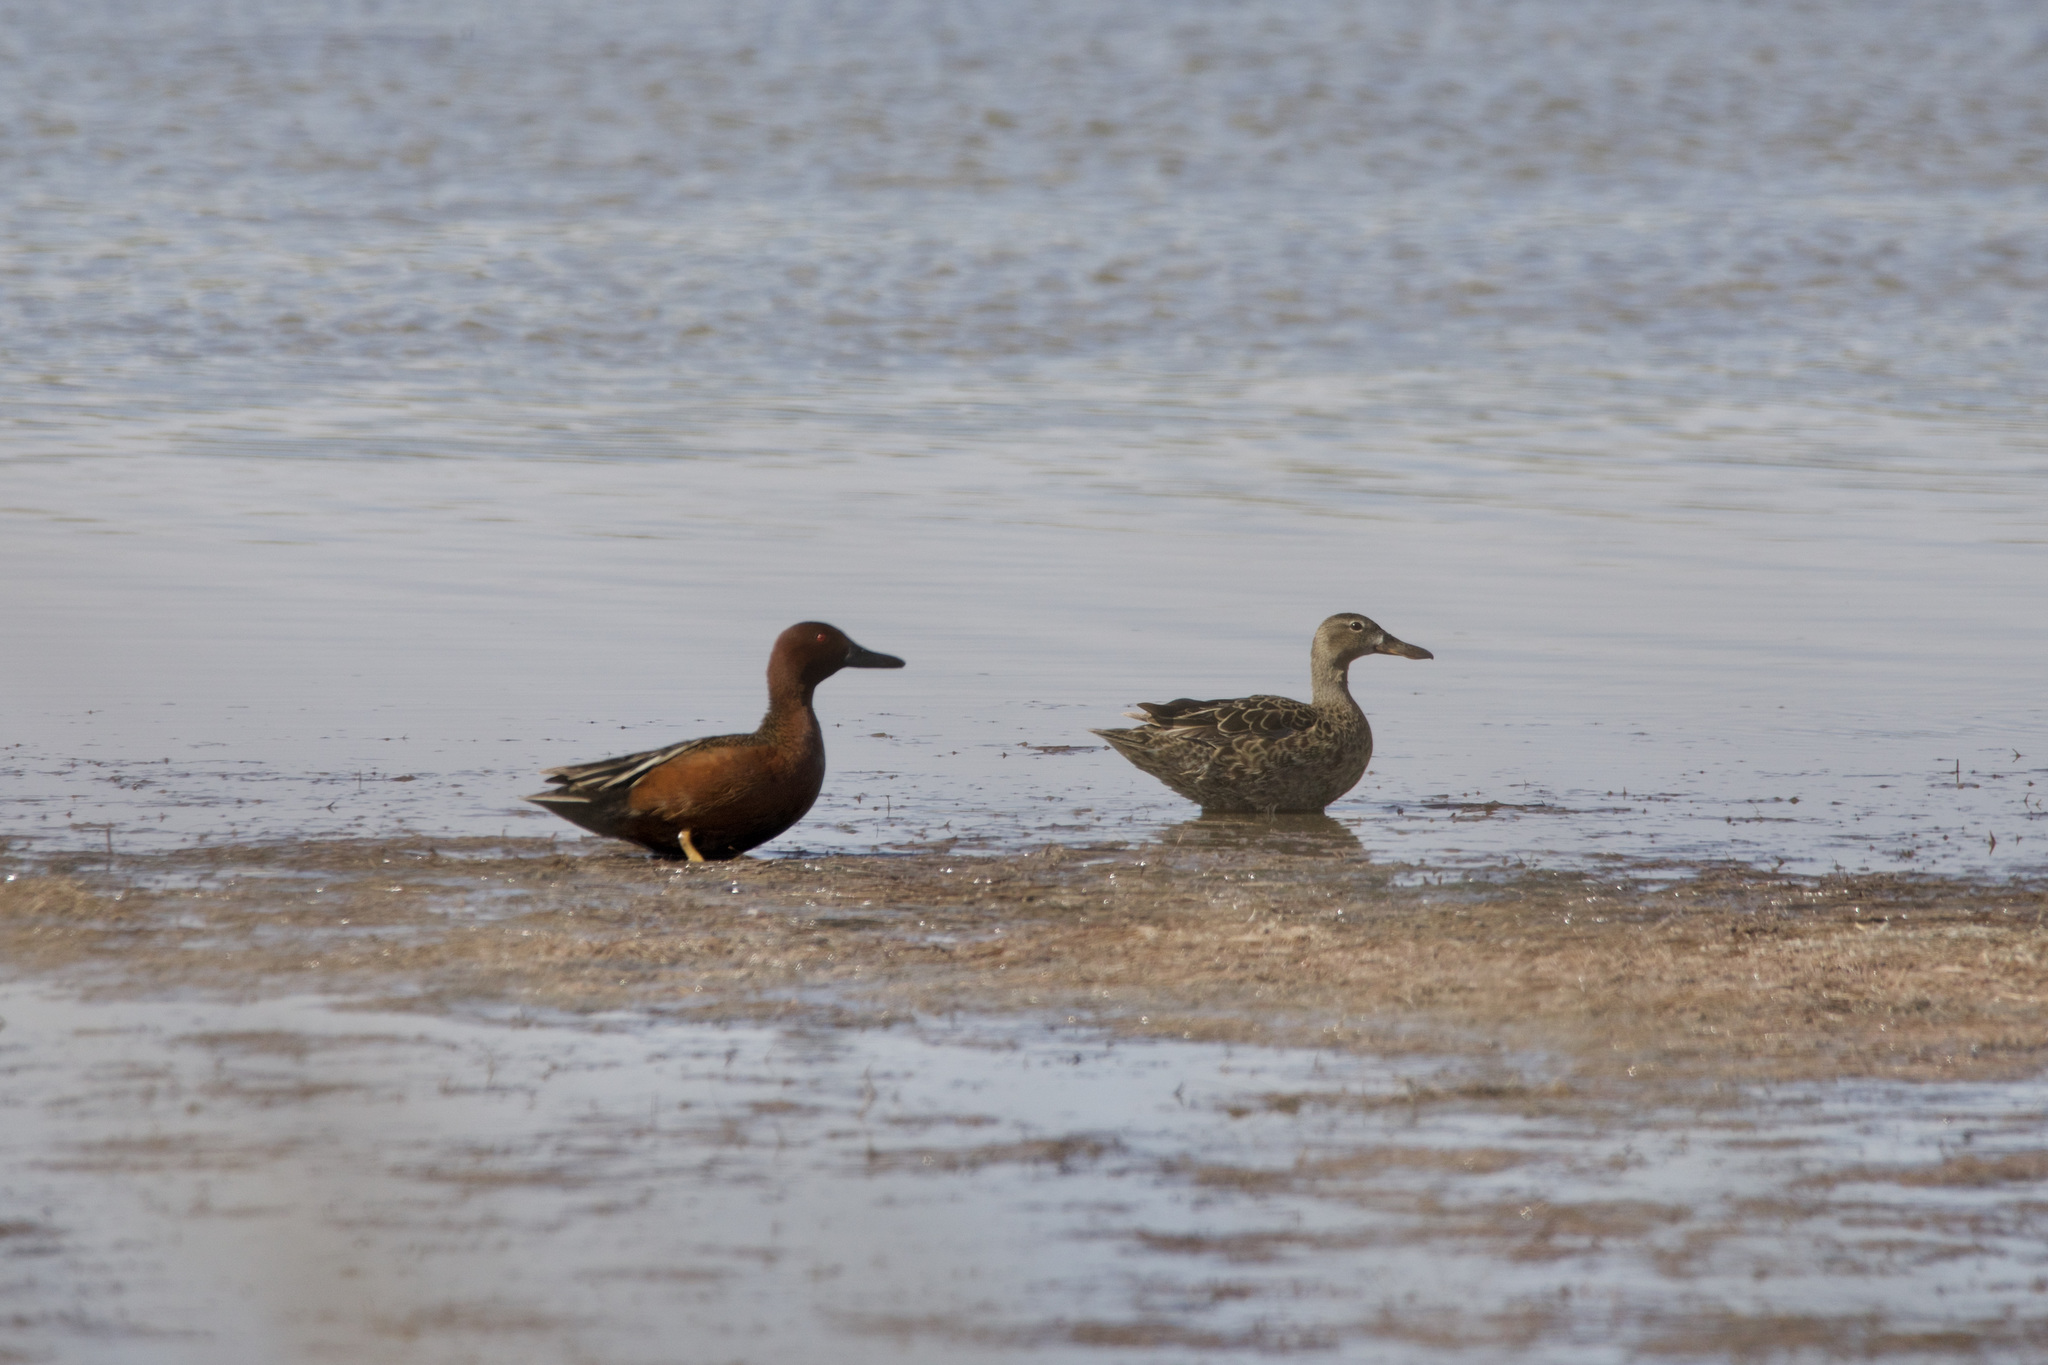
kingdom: Animalia
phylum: Chordata
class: Aves
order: Anseriformes
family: Anatidae
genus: Spatula
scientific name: Spatula cyanoptera
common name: Cinnamon teal
